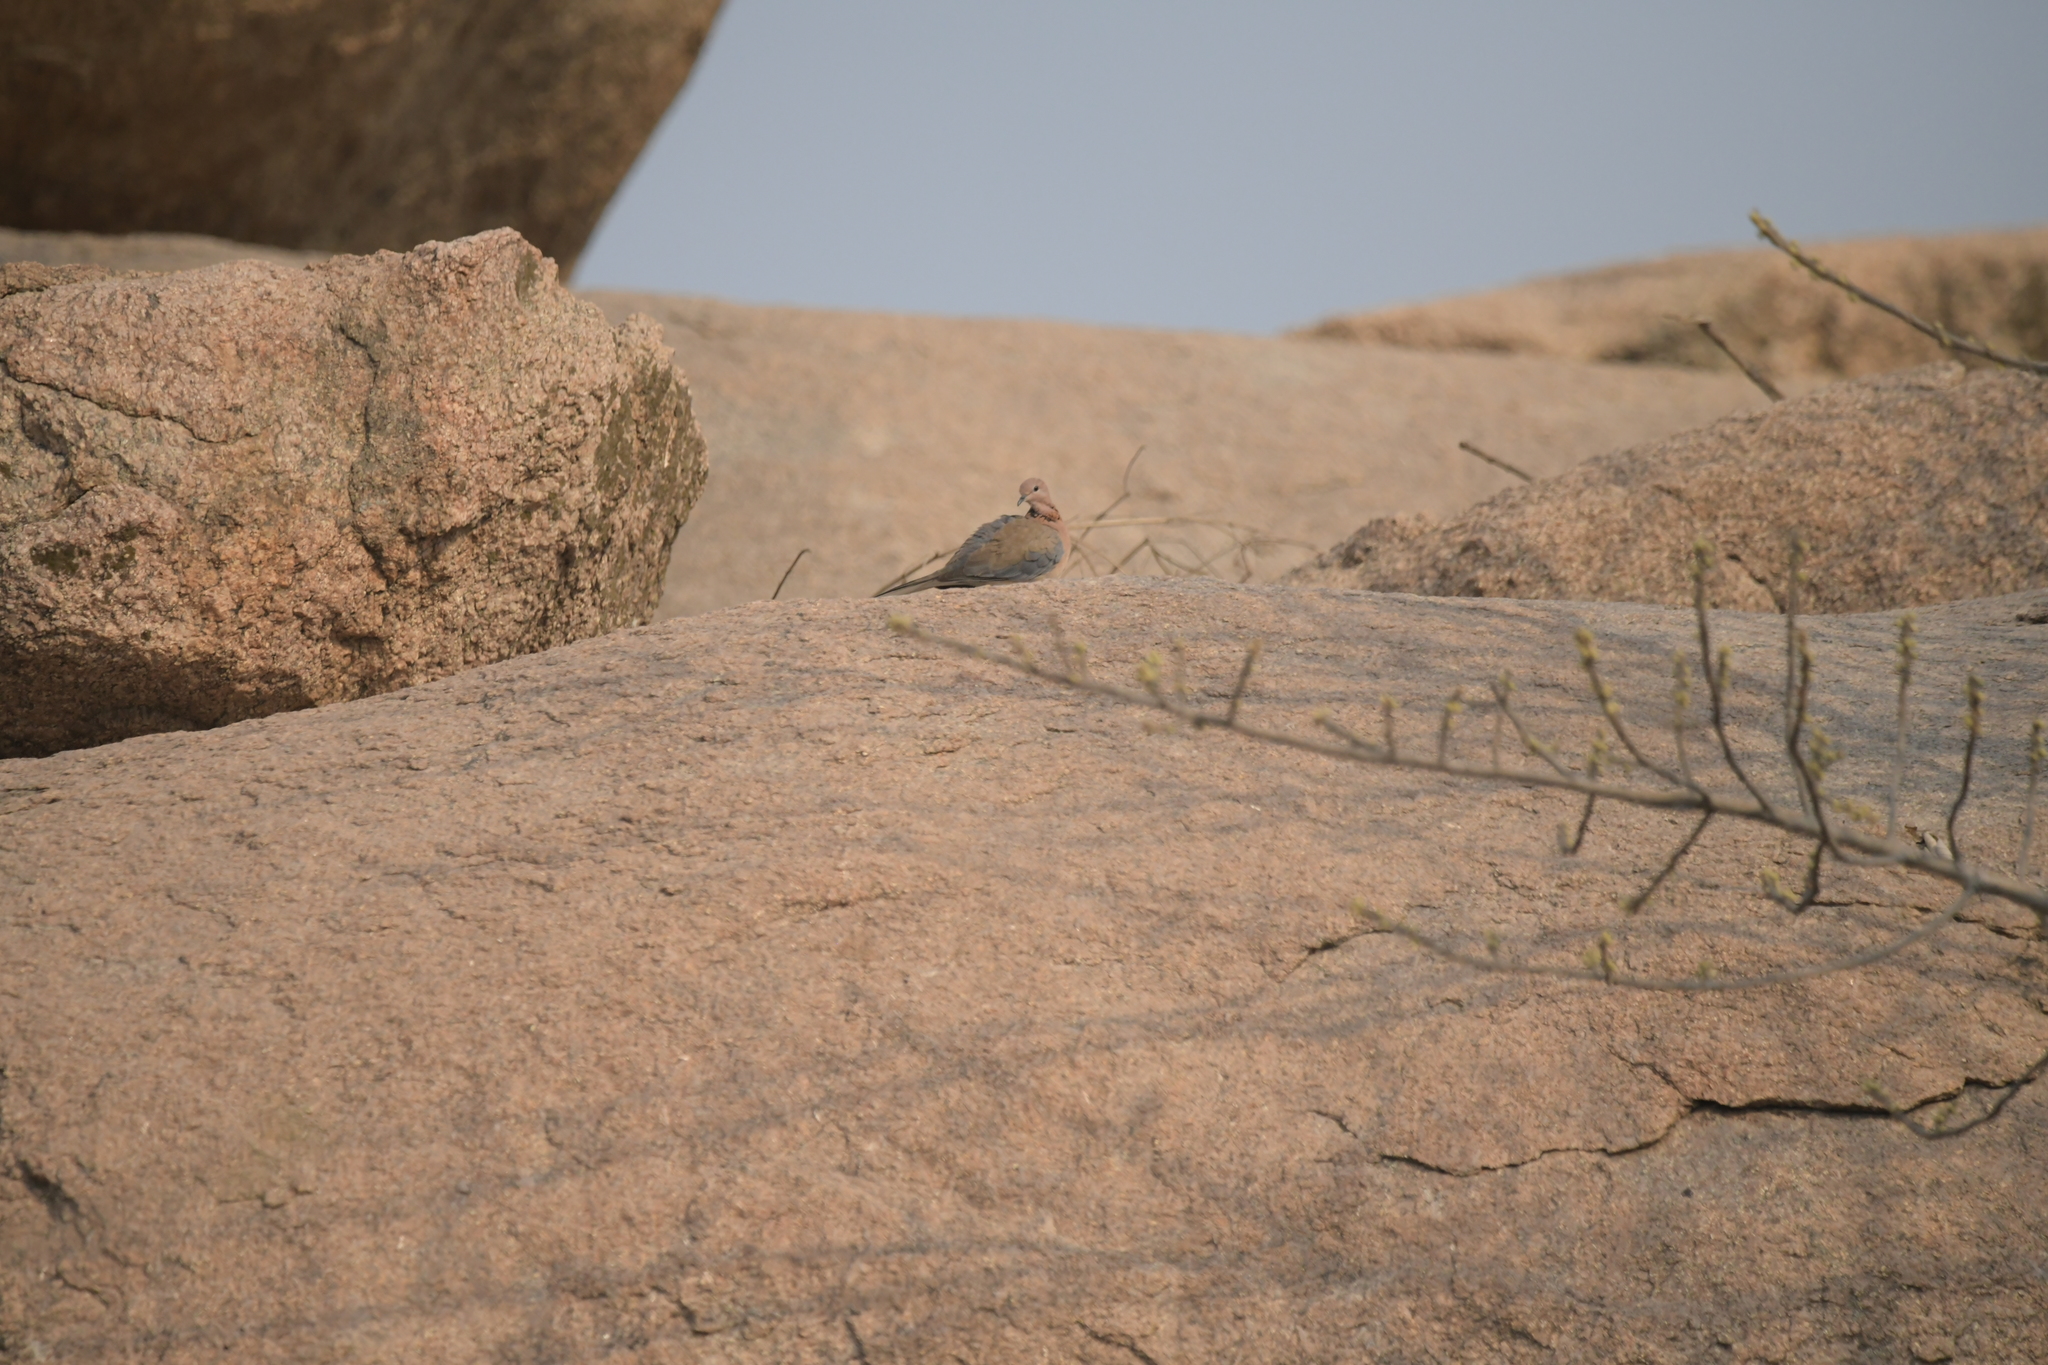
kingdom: Animalia
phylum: Chordata
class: Aves
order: Columbiformes
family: Columbidae
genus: Spilopelia
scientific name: Spilopelia senegalensis
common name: Laughing dove
